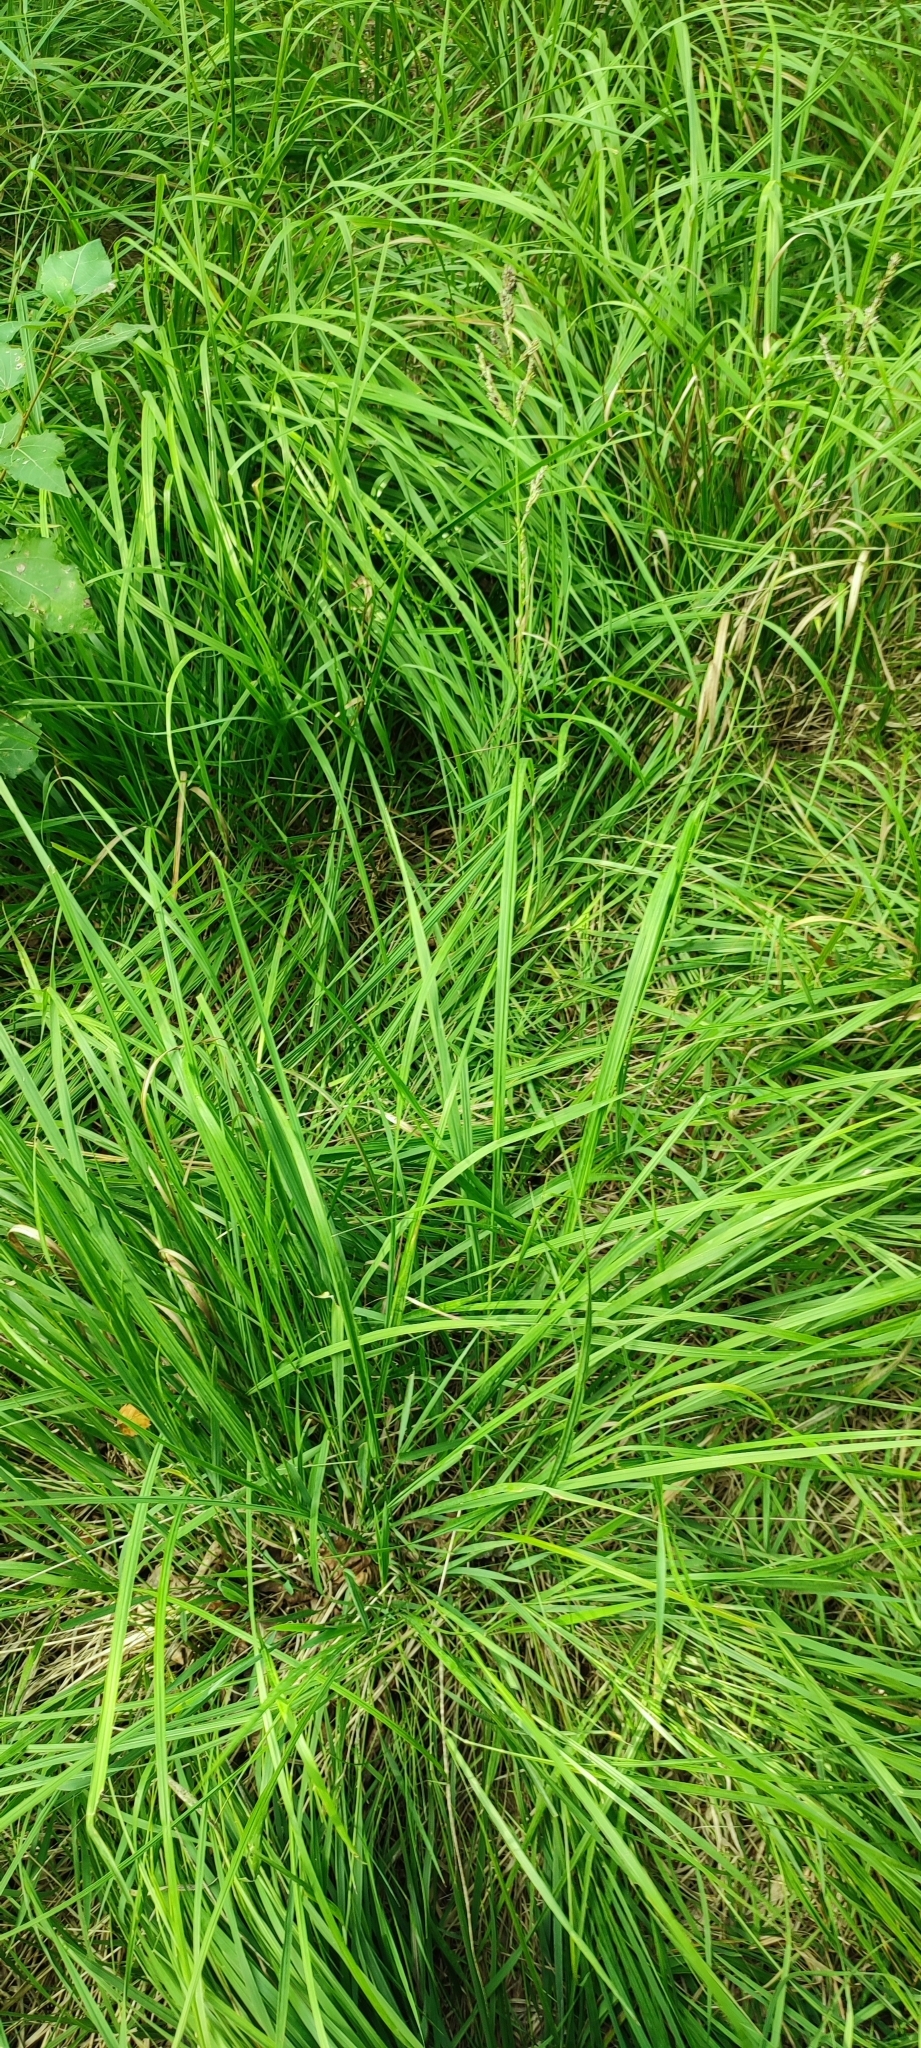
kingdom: Plantae
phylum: Tracheophyta
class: Liliopsida
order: Poales
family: Poaceae
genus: Molinia
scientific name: Molinia caerulea
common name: Purple moor-grass
